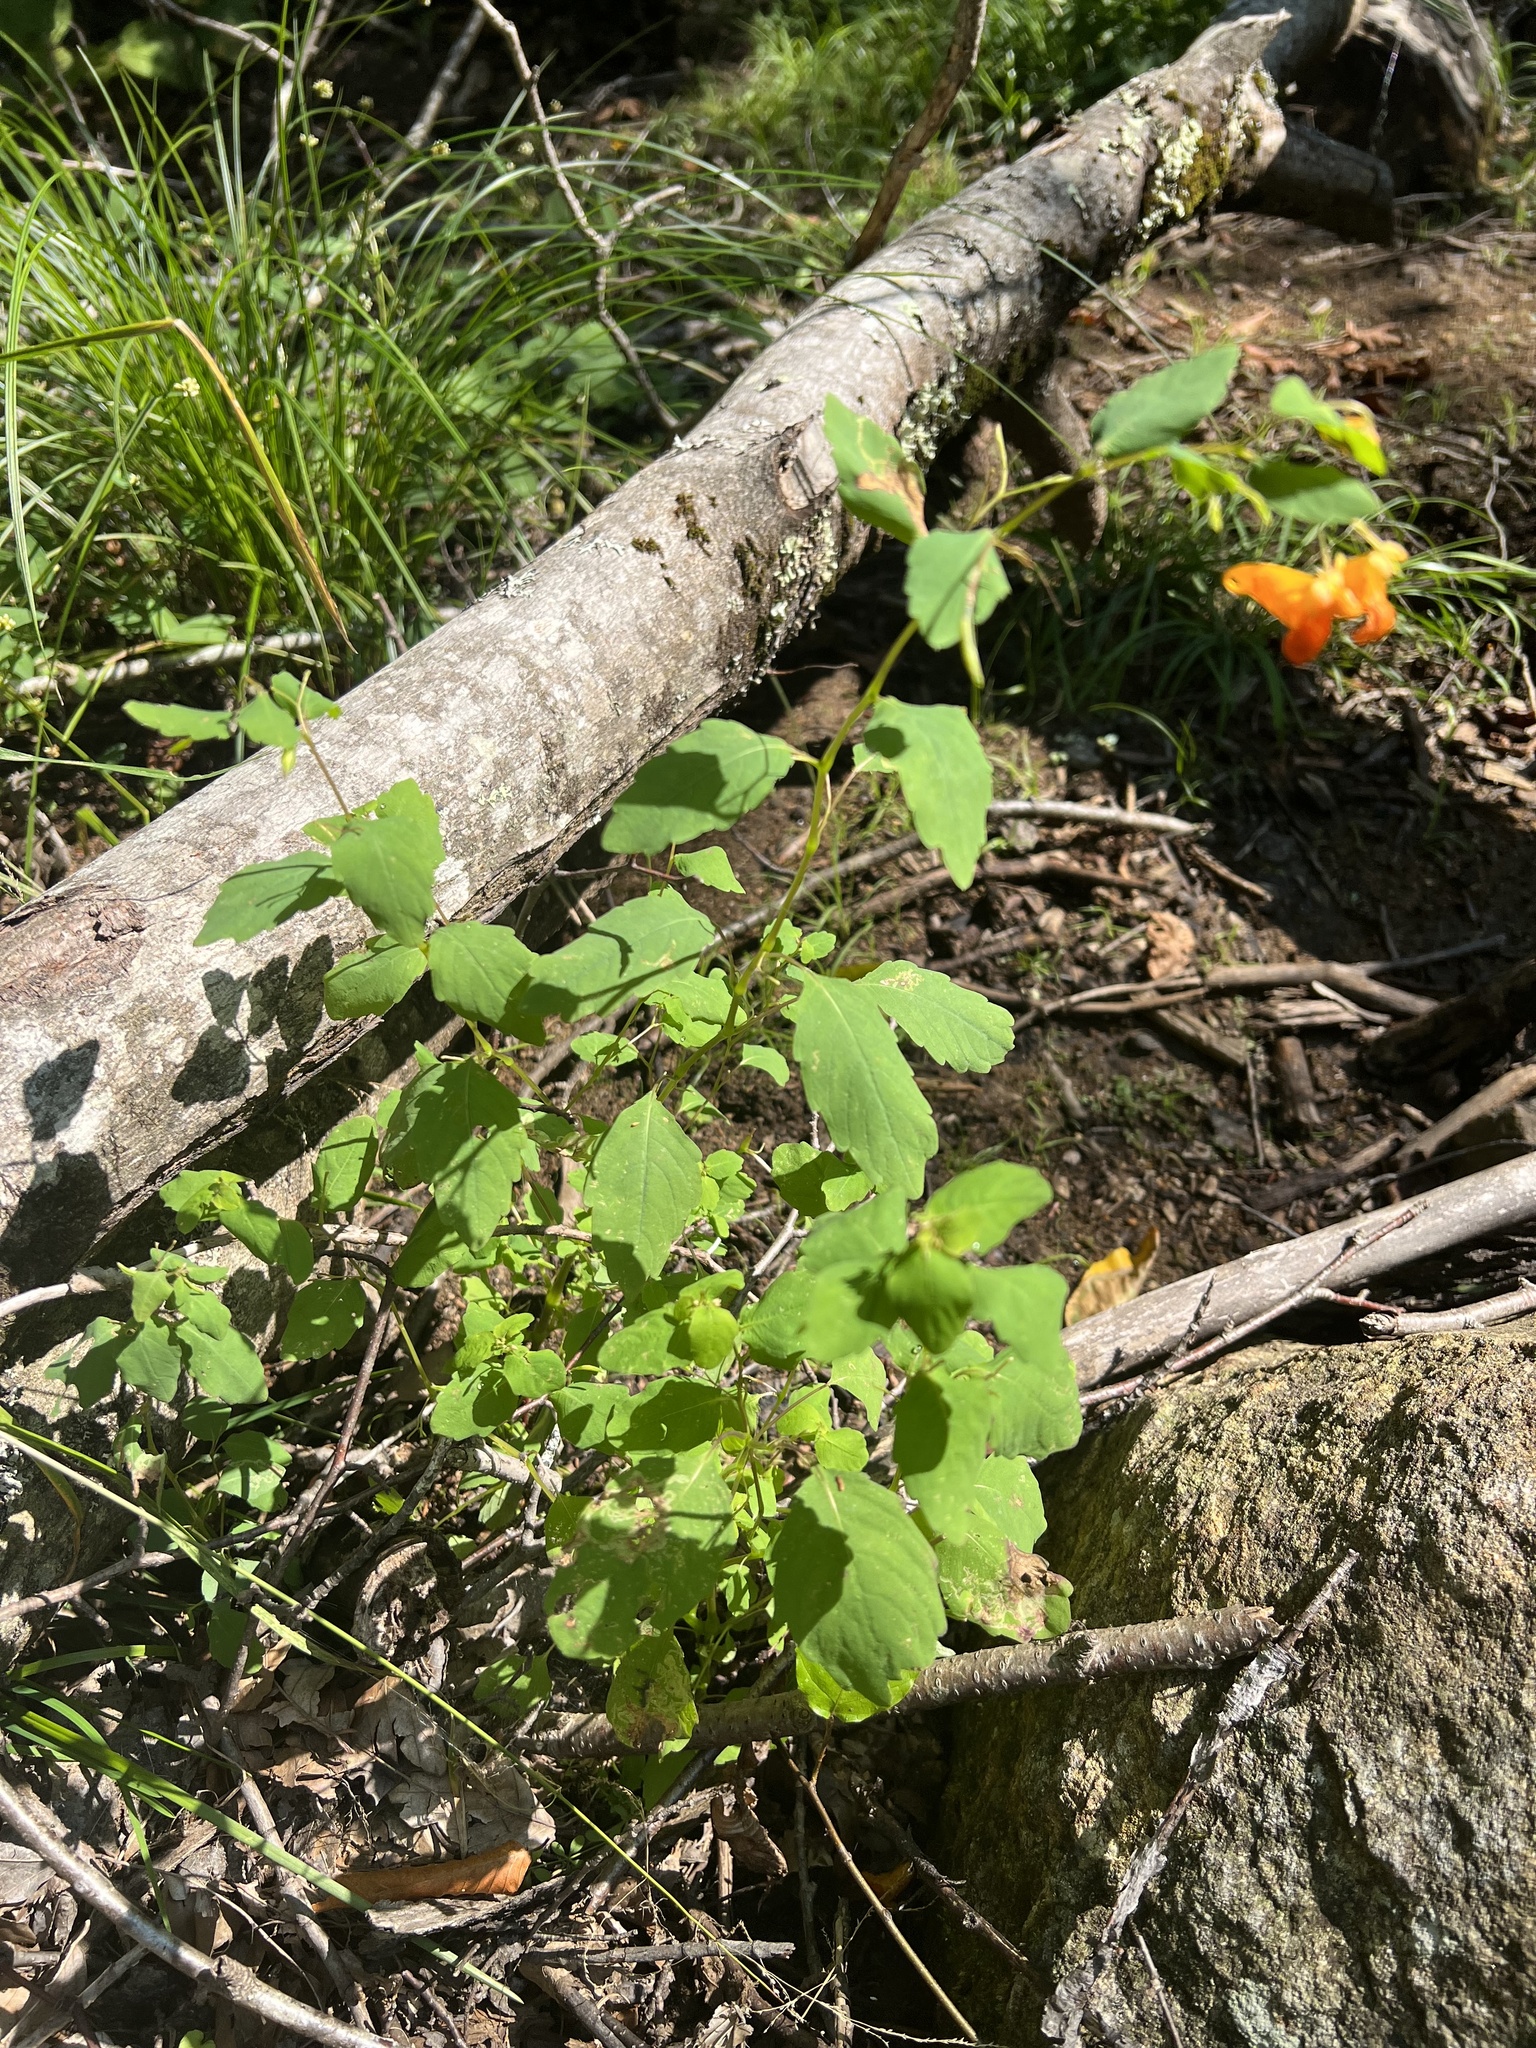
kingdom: Plantae
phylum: Tracheophyta
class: Magnoliopsida
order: Ericales
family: Balsaminaceae
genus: Impatiens
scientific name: Impatiens capensis
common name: Orange balsam
